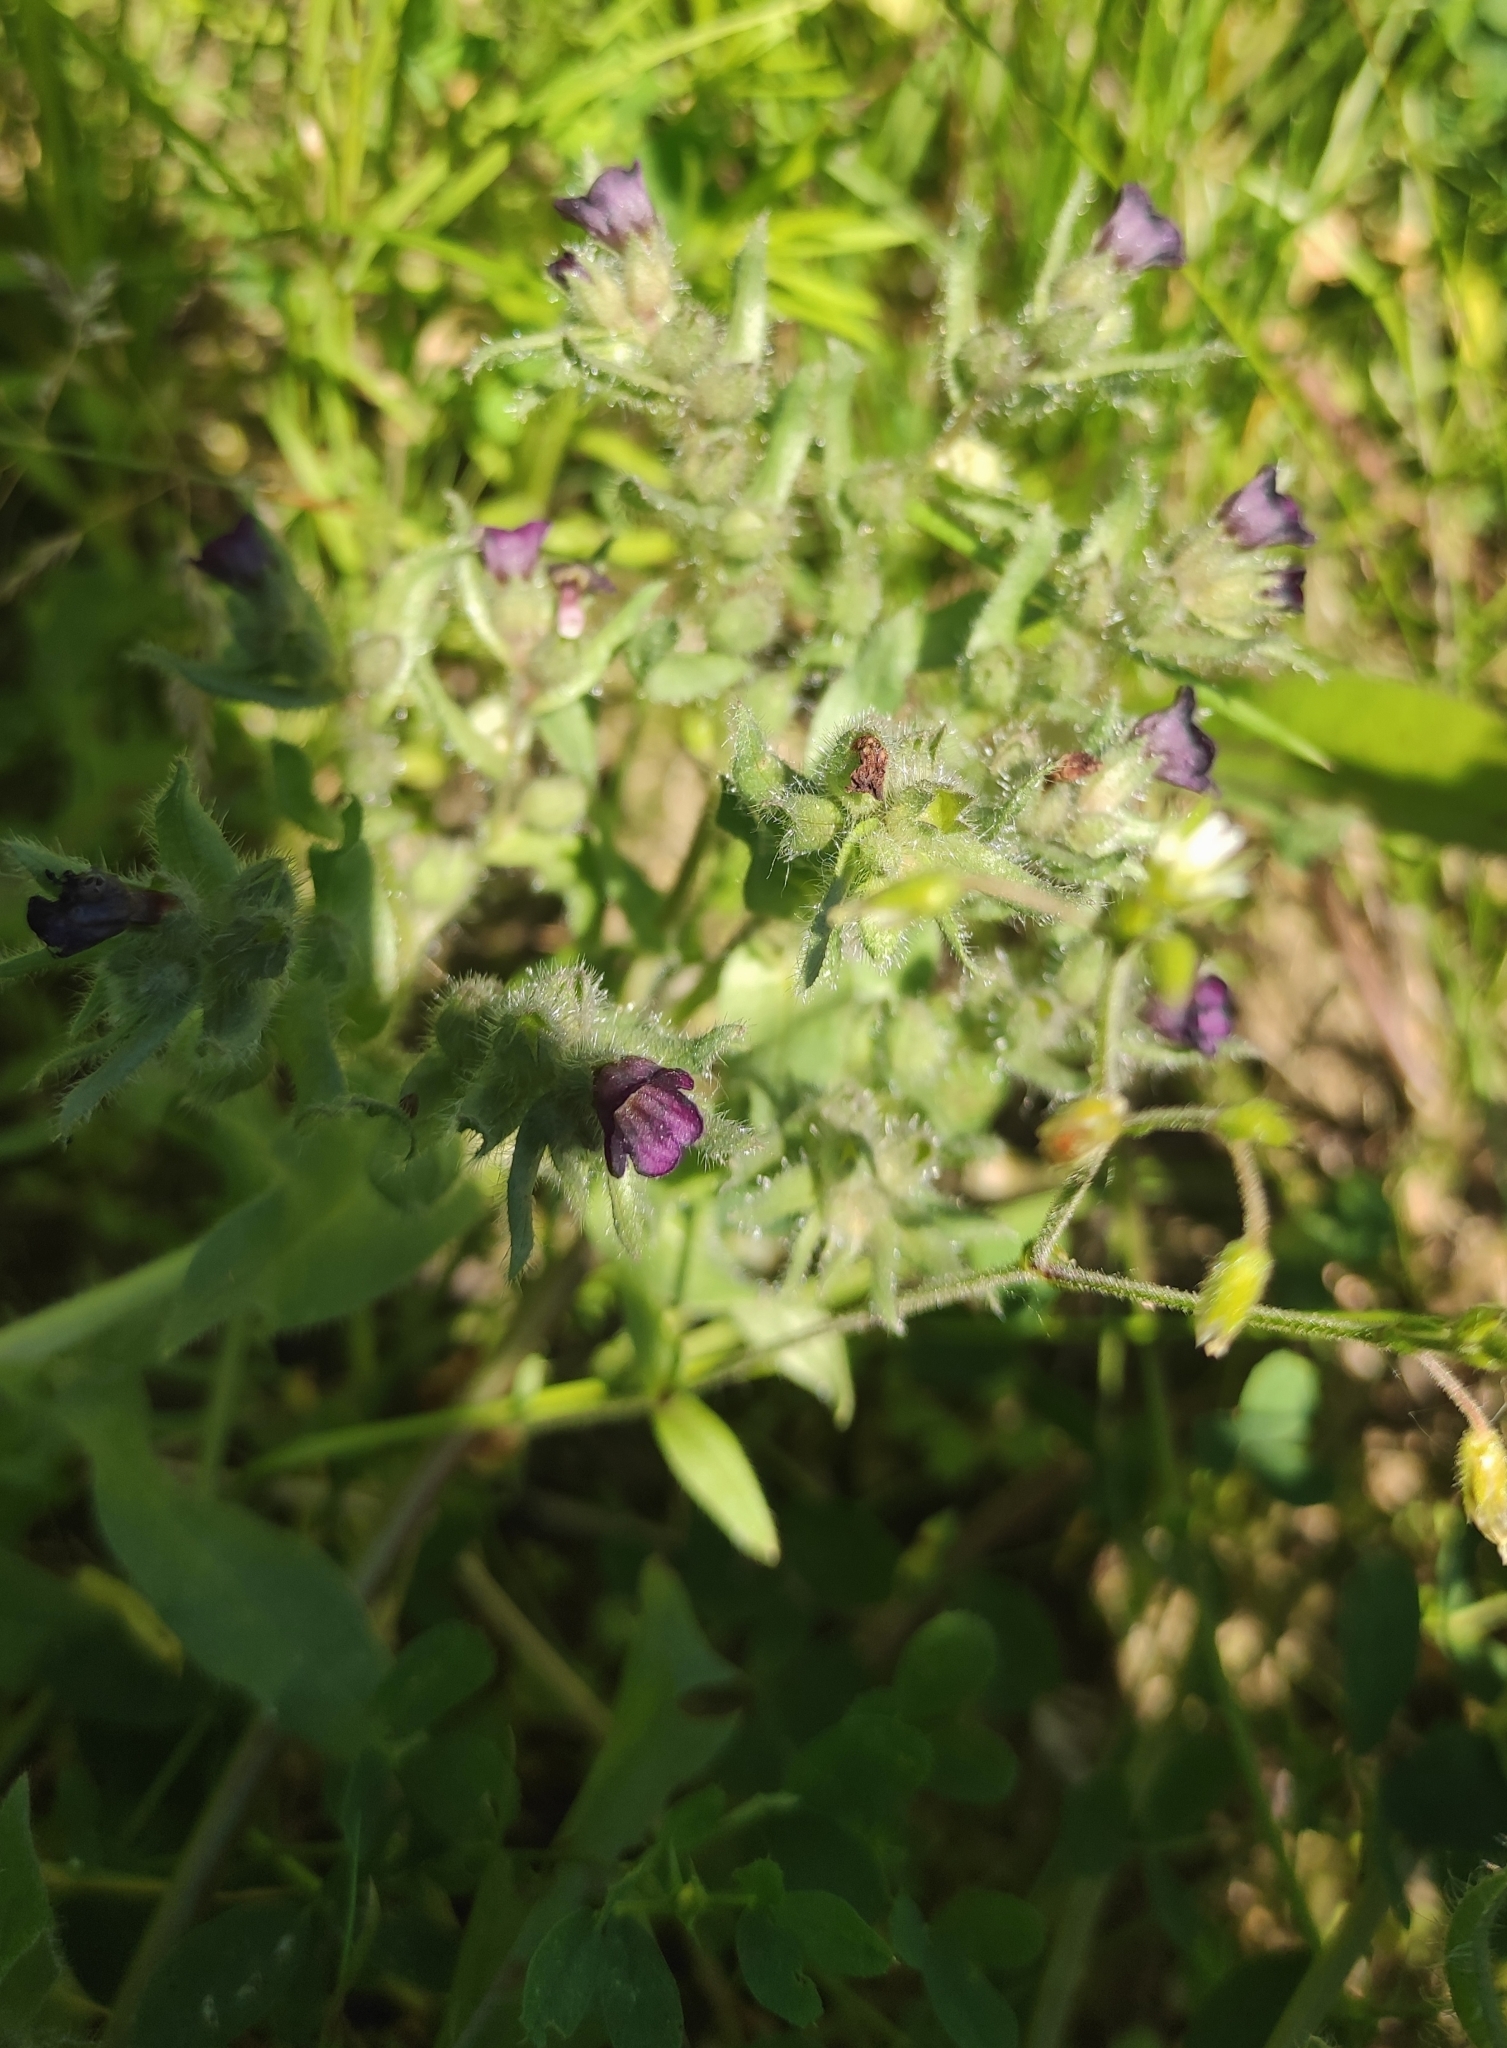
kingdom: Plantae
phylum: Tracheophyta
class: Magnoliopsida
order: Boraginales
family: Boraginaceae
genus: Nonea
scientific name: Nonea pulla
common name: Brown nonea
